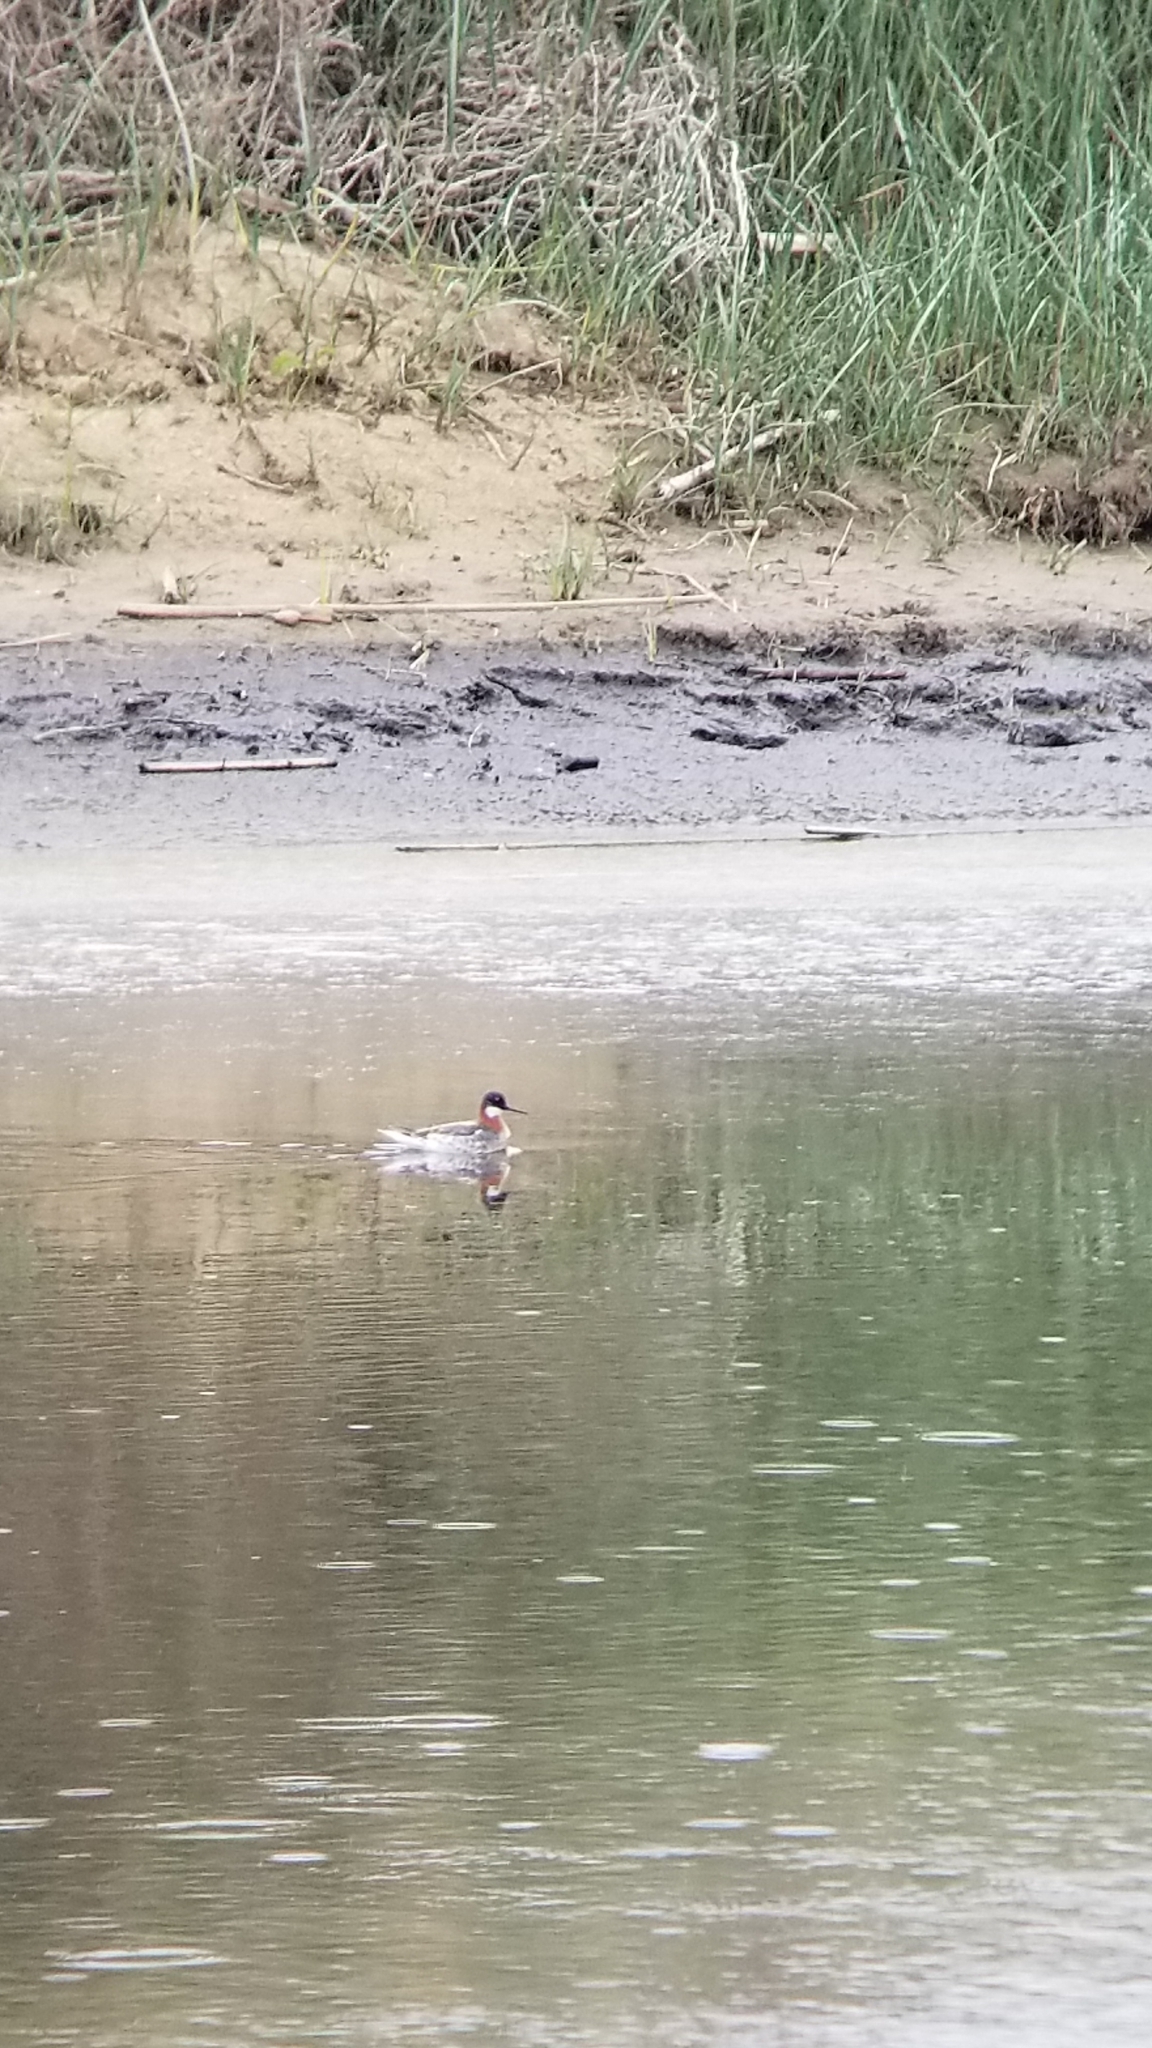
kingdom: Animalia
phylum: Chordata
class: Aves
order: Charadriiformes
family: Scolopacidae
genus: Phalaropus
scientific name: Phalaropus lobatus
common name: Red-necked phalarope
